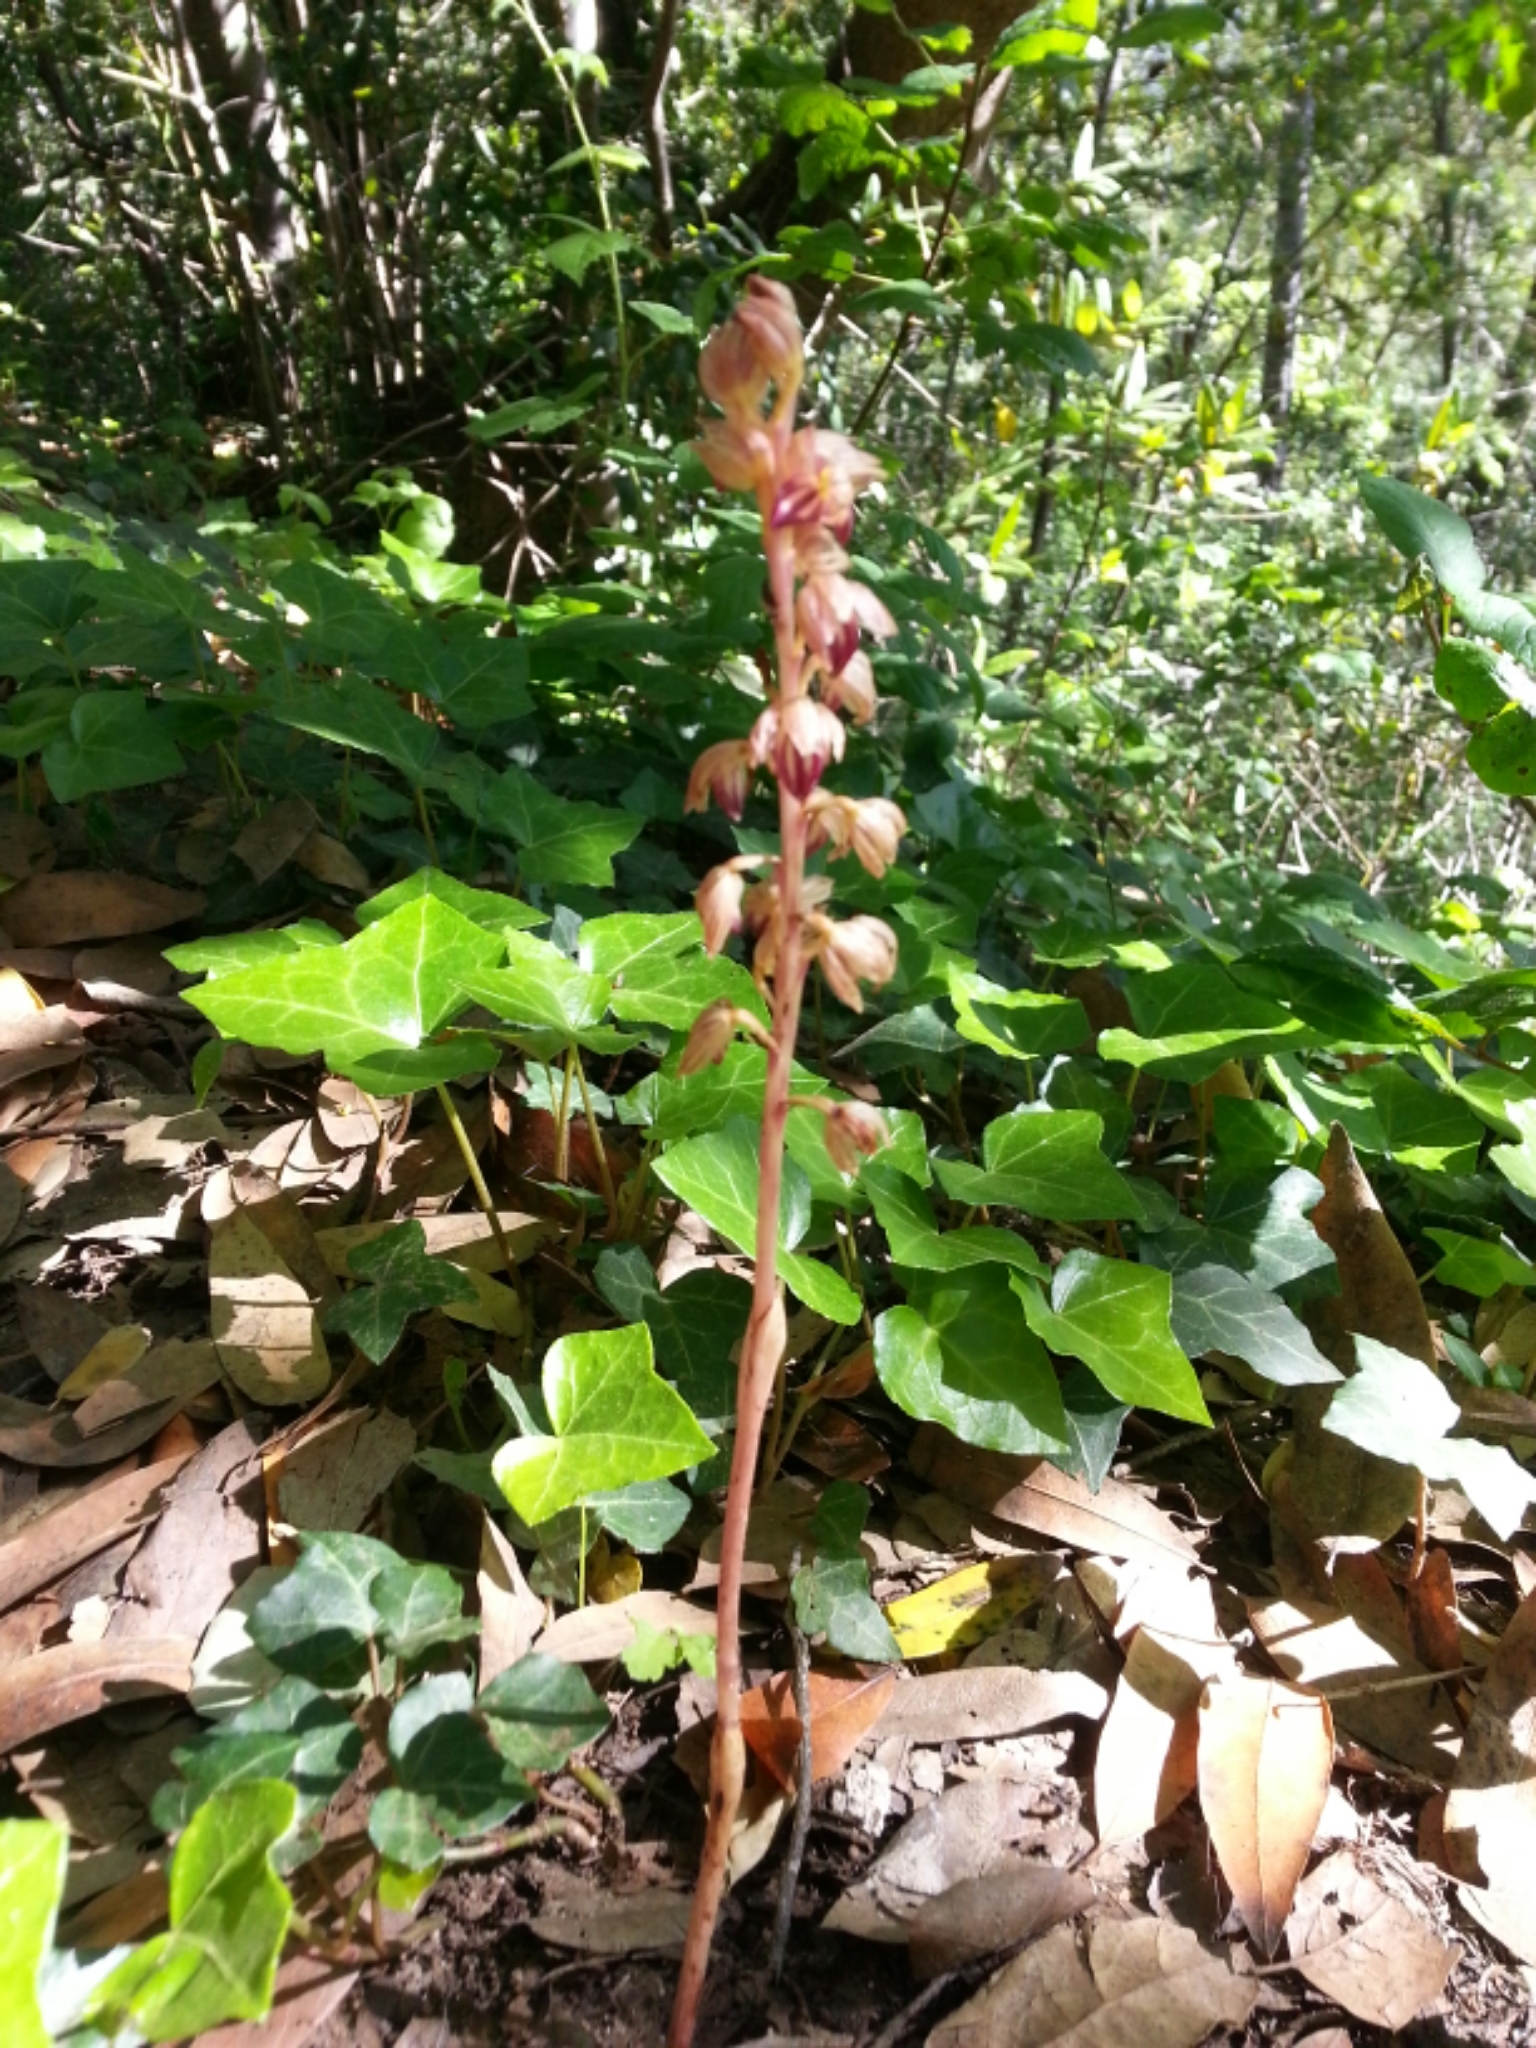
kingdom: Plantae
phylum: Tracheophyta
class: Liliopsida
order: Asparagales
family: Orchidaceae
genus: Corallorhiza
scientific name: Corallorhiza striata
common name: Hooded coralroot
